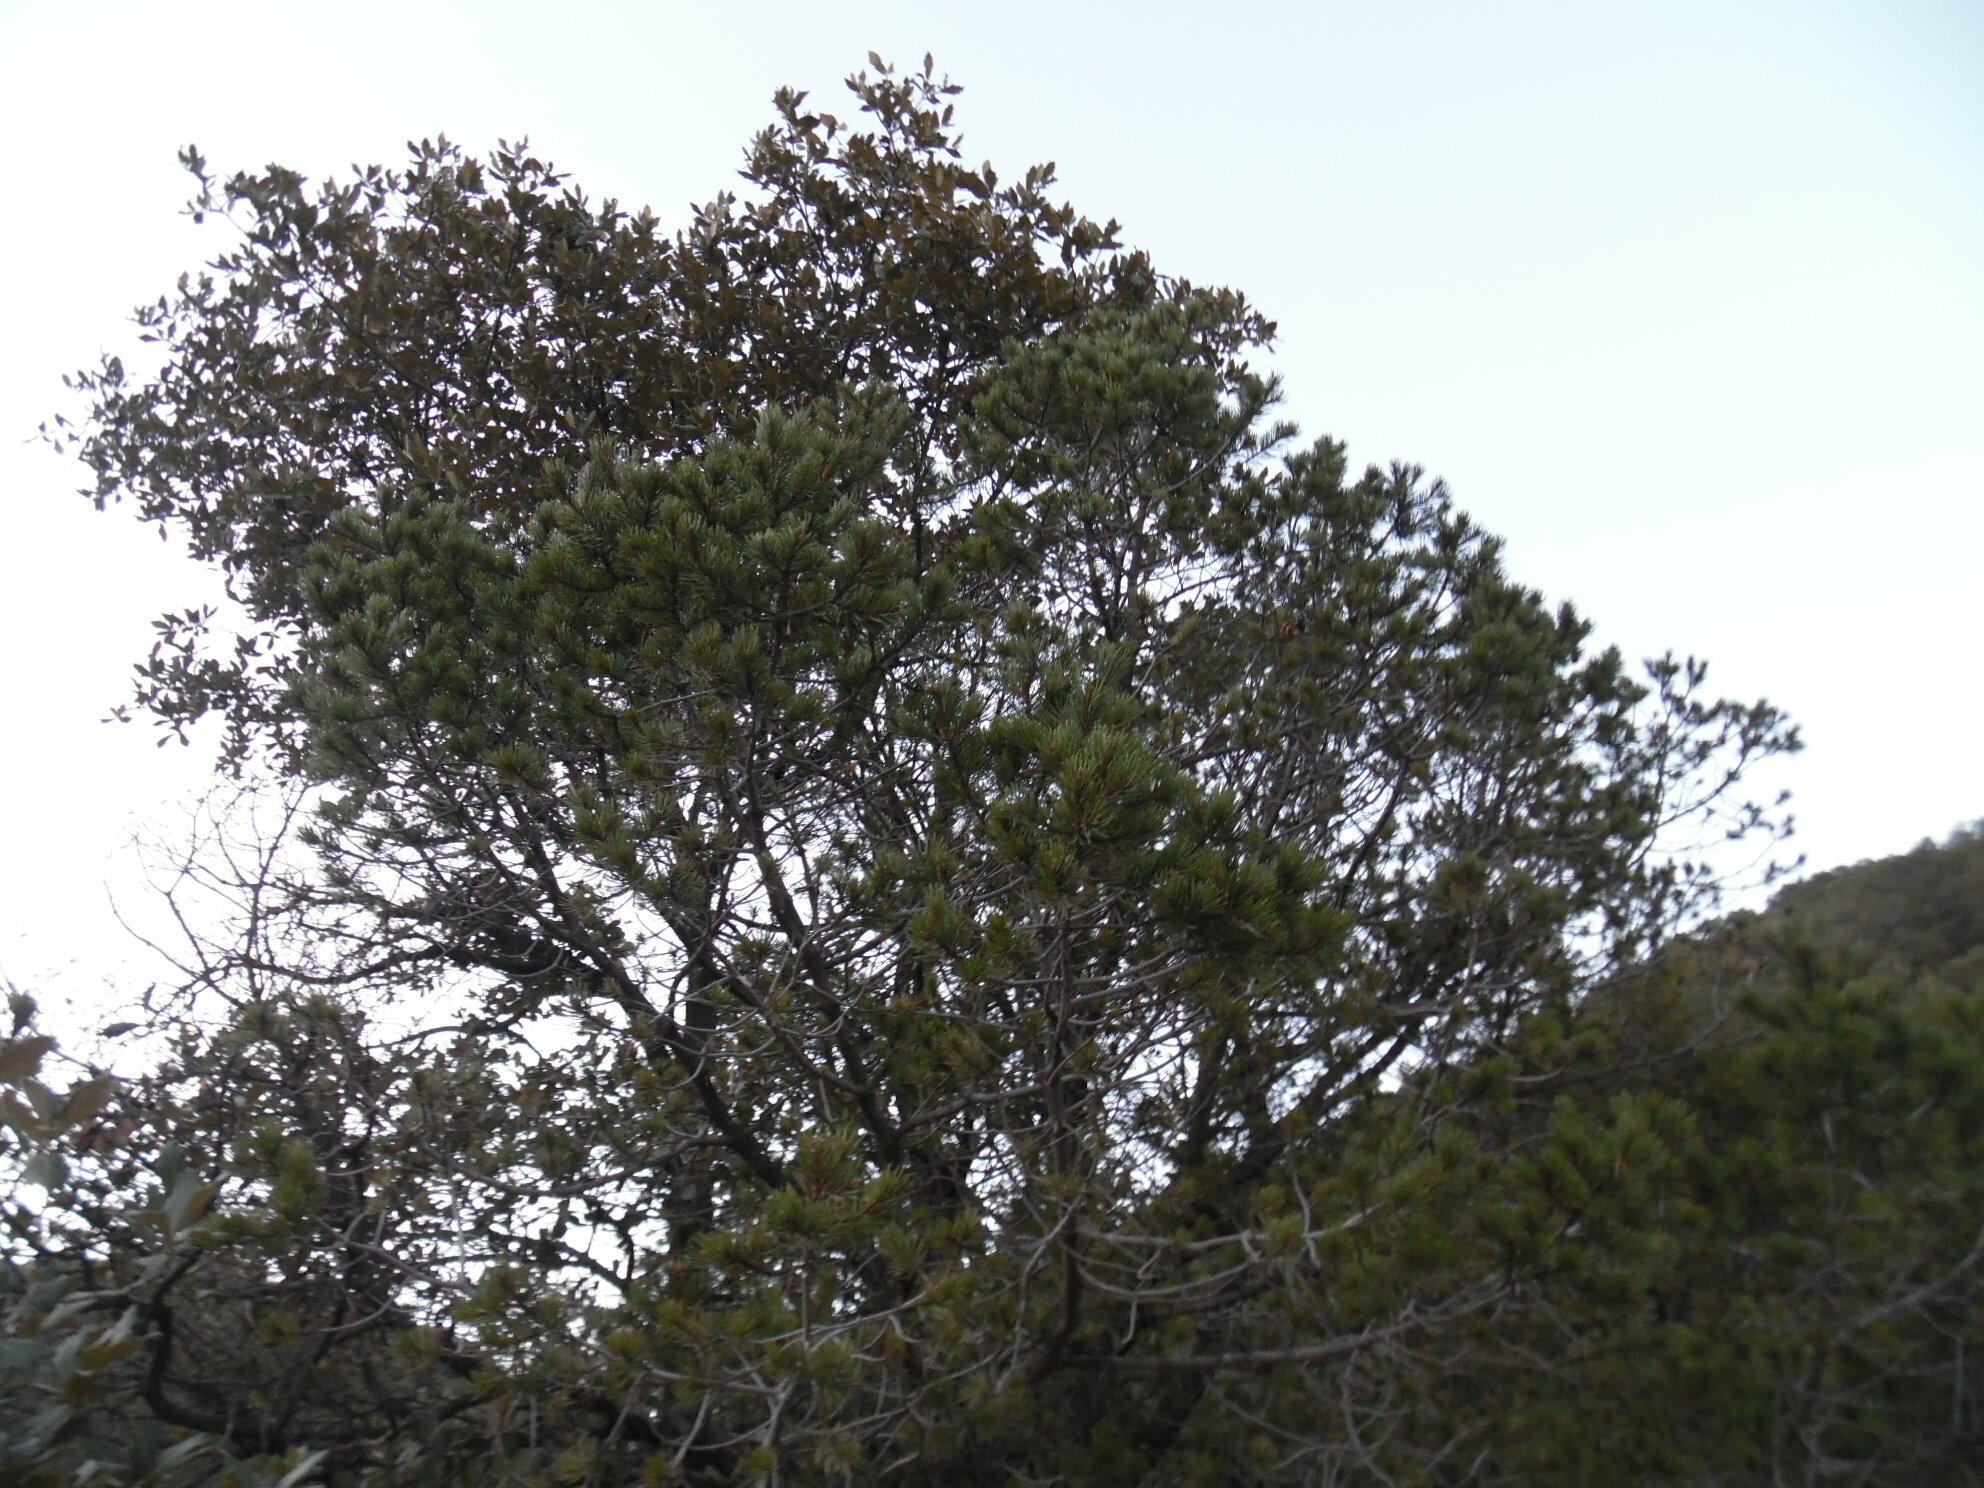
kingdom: Plantae
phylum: Tracheophyta
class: Pinopsida
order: Pinales
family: Pinaceae
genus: Pinus
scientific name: Pinus discolor
